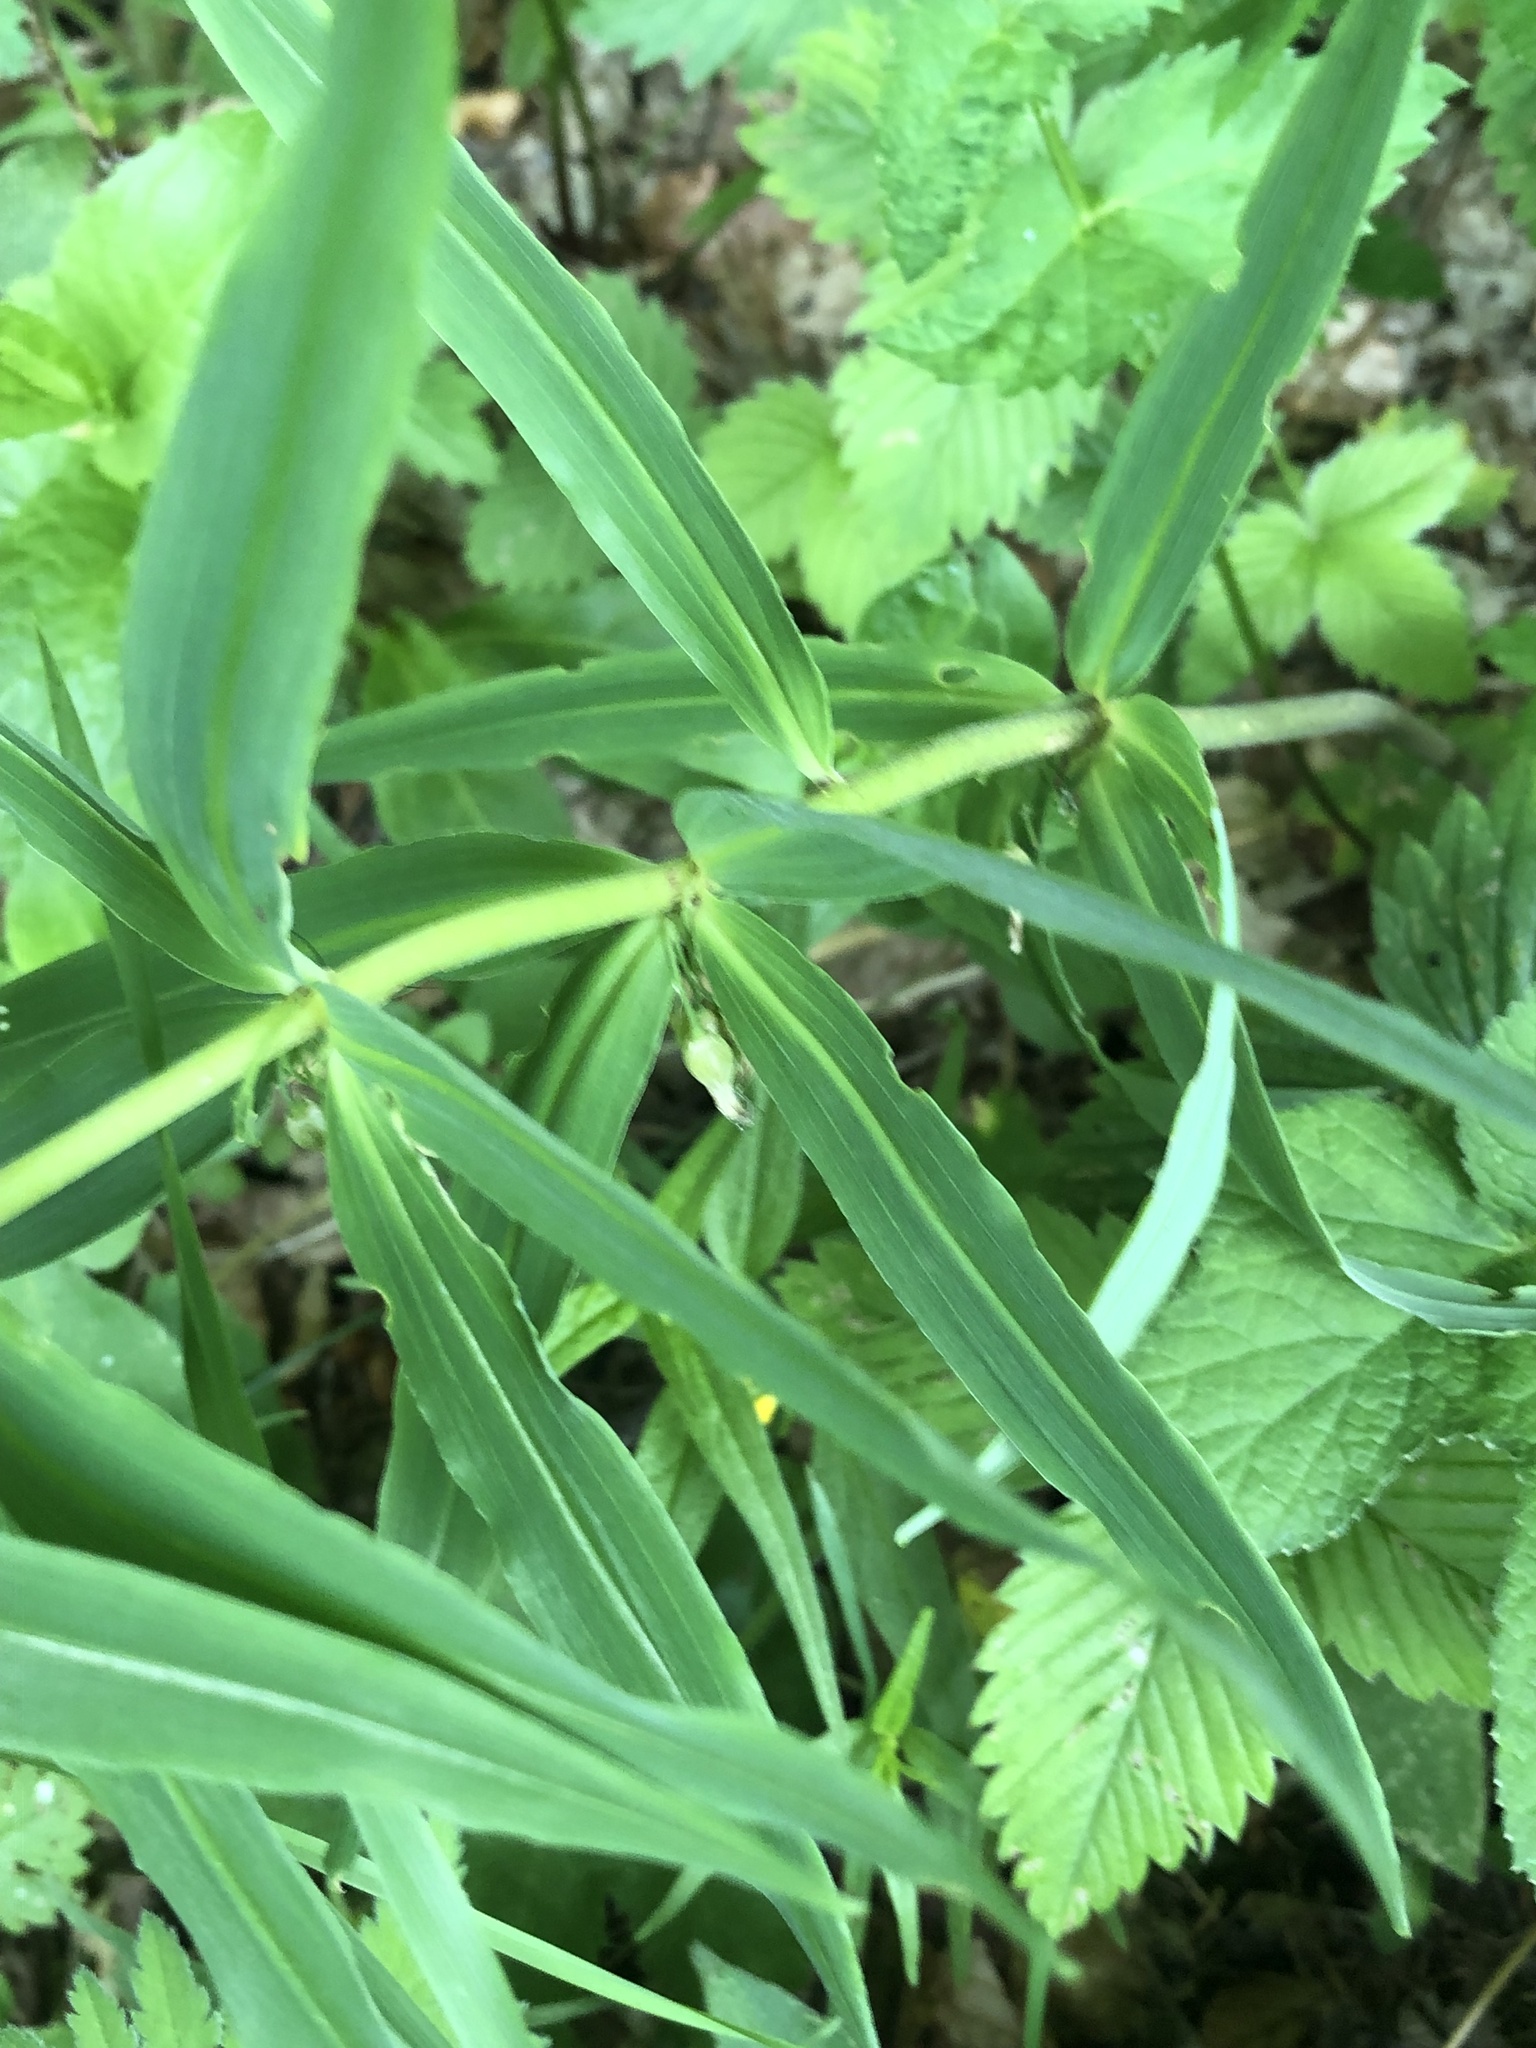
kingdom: Plantae
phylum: Tracheophyta
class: Liliopsida
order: Asparagales
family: Asparagaceae
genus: Polygonatum
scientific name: Polygonatum verticillatum
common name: Whorled solomon's-seal
